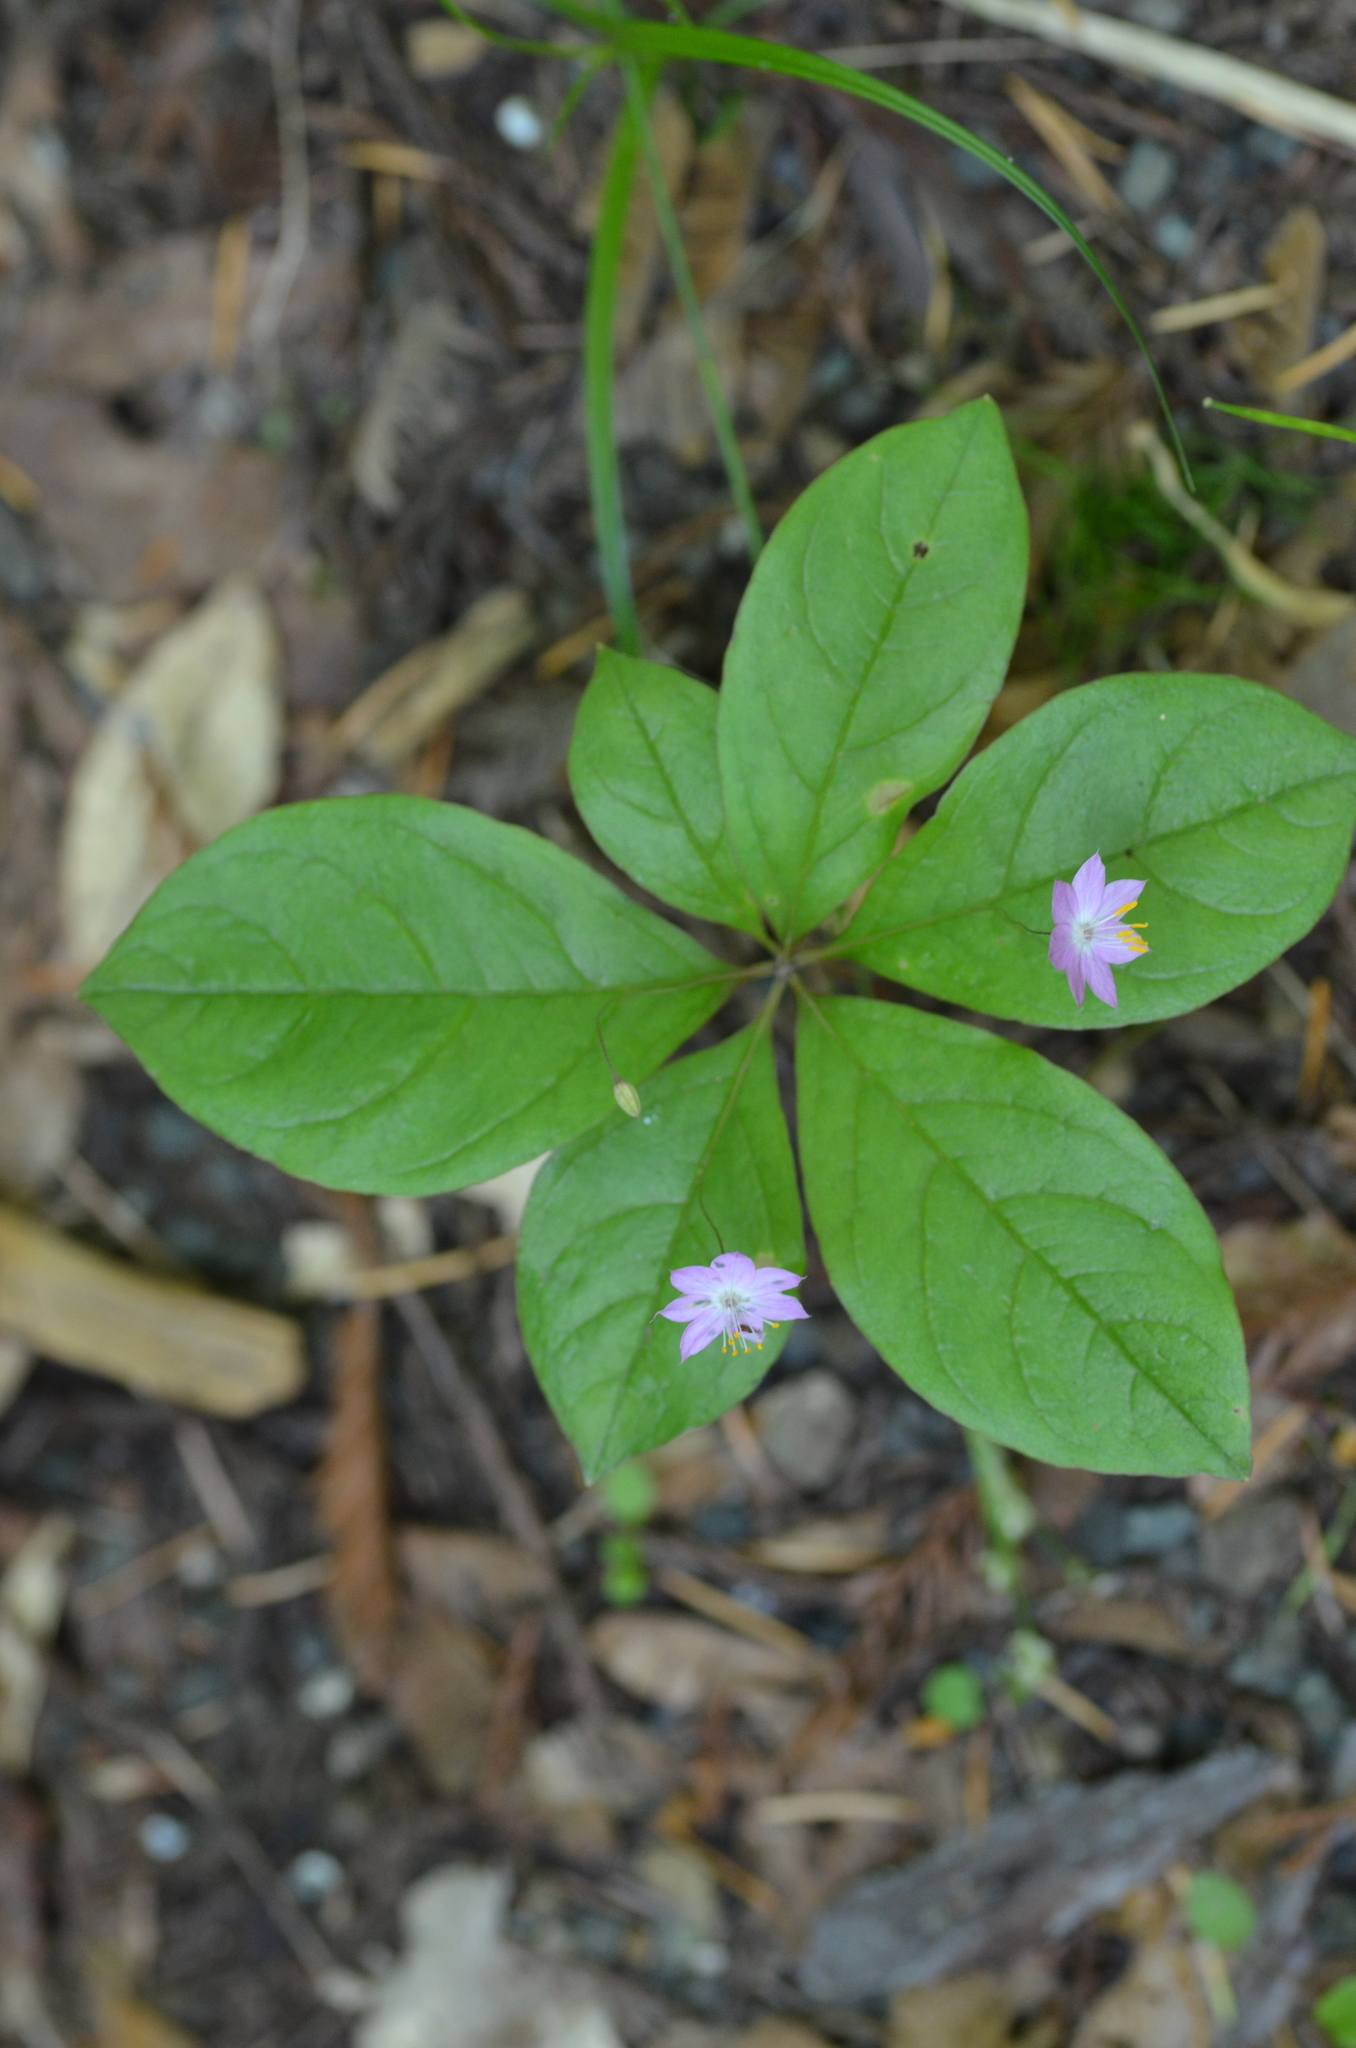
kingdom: Plantae
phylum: Tracheophyta
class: Magnoliopsida
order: Ericales
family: Primulaceae
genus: Lysimachia
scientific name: Lysimachia latifolia
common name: Pacific starflower
